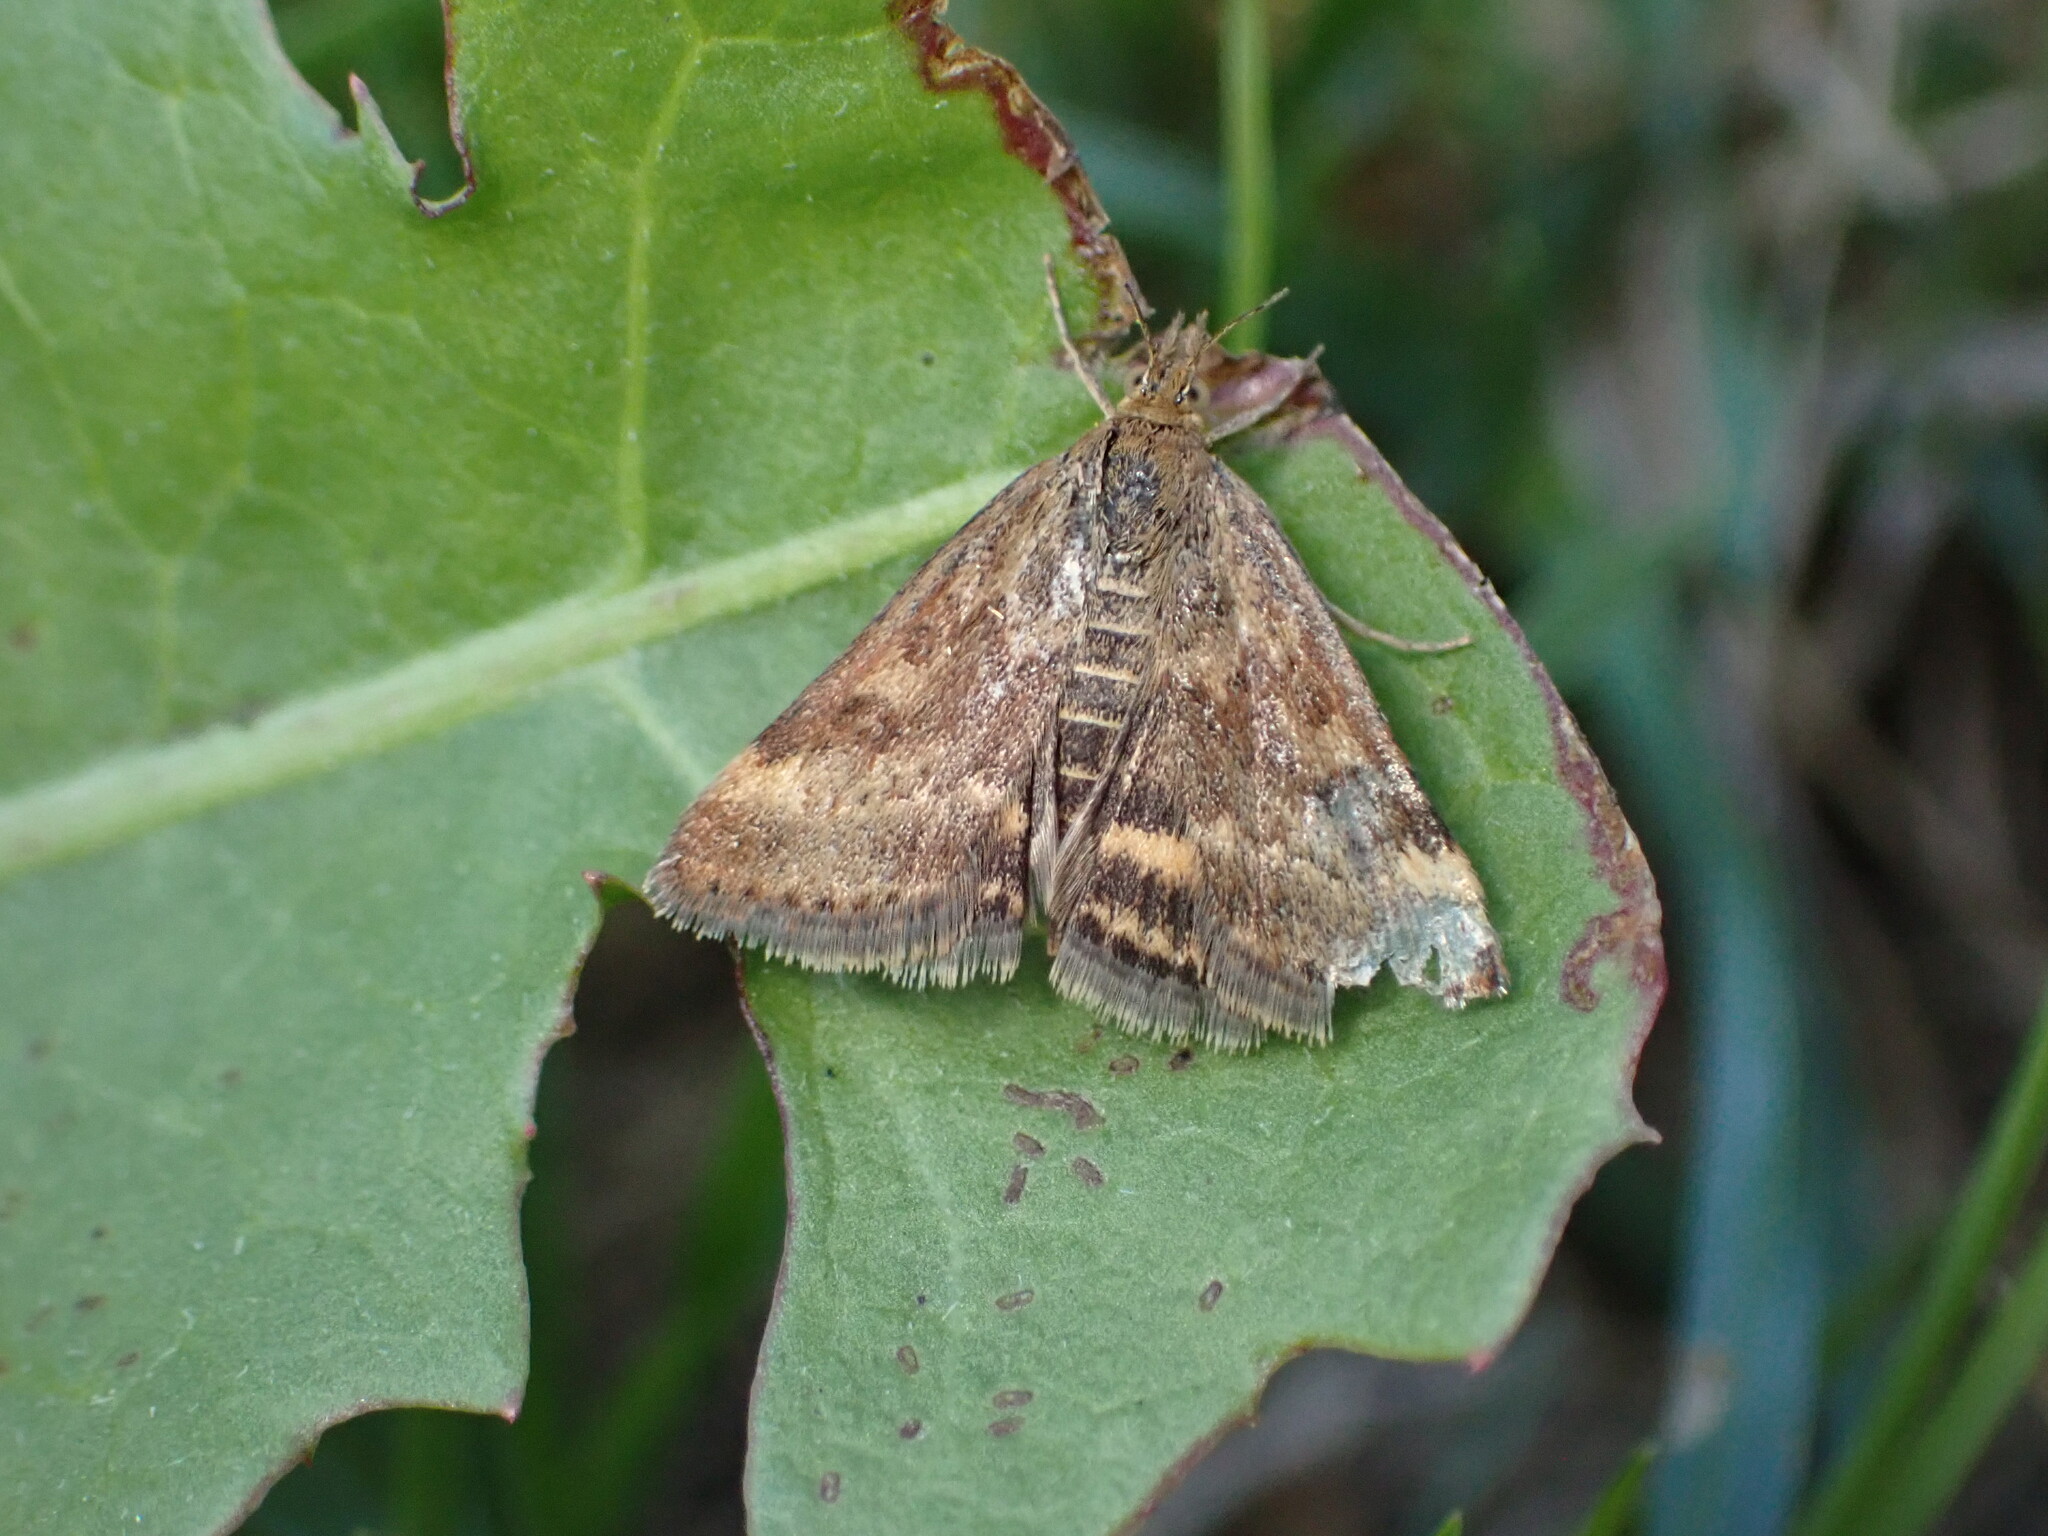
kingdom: Animalia
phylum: Arthropoda
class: Insecta
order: Lepidoptera
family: Crambidae
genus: Pyrausta
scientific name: Pyrausta despicata
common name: Straw-barred pearl
